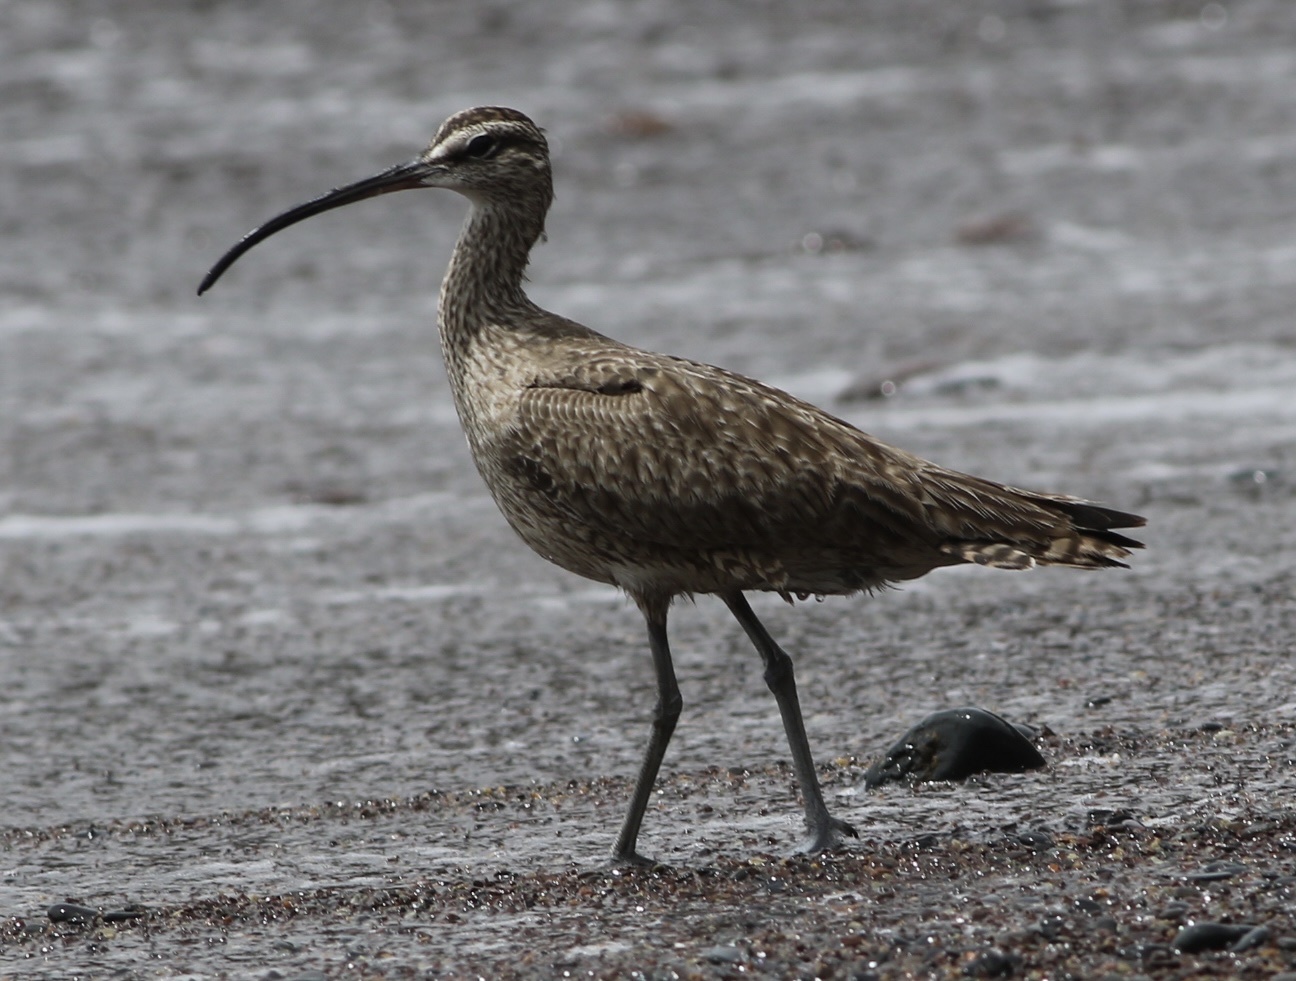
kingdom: Animalia
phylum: Chordata
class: Aves
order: Charadriiformes
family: Scolopacidae
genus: Numenius
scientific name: Numenius phaeopus
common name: Whimbrel
